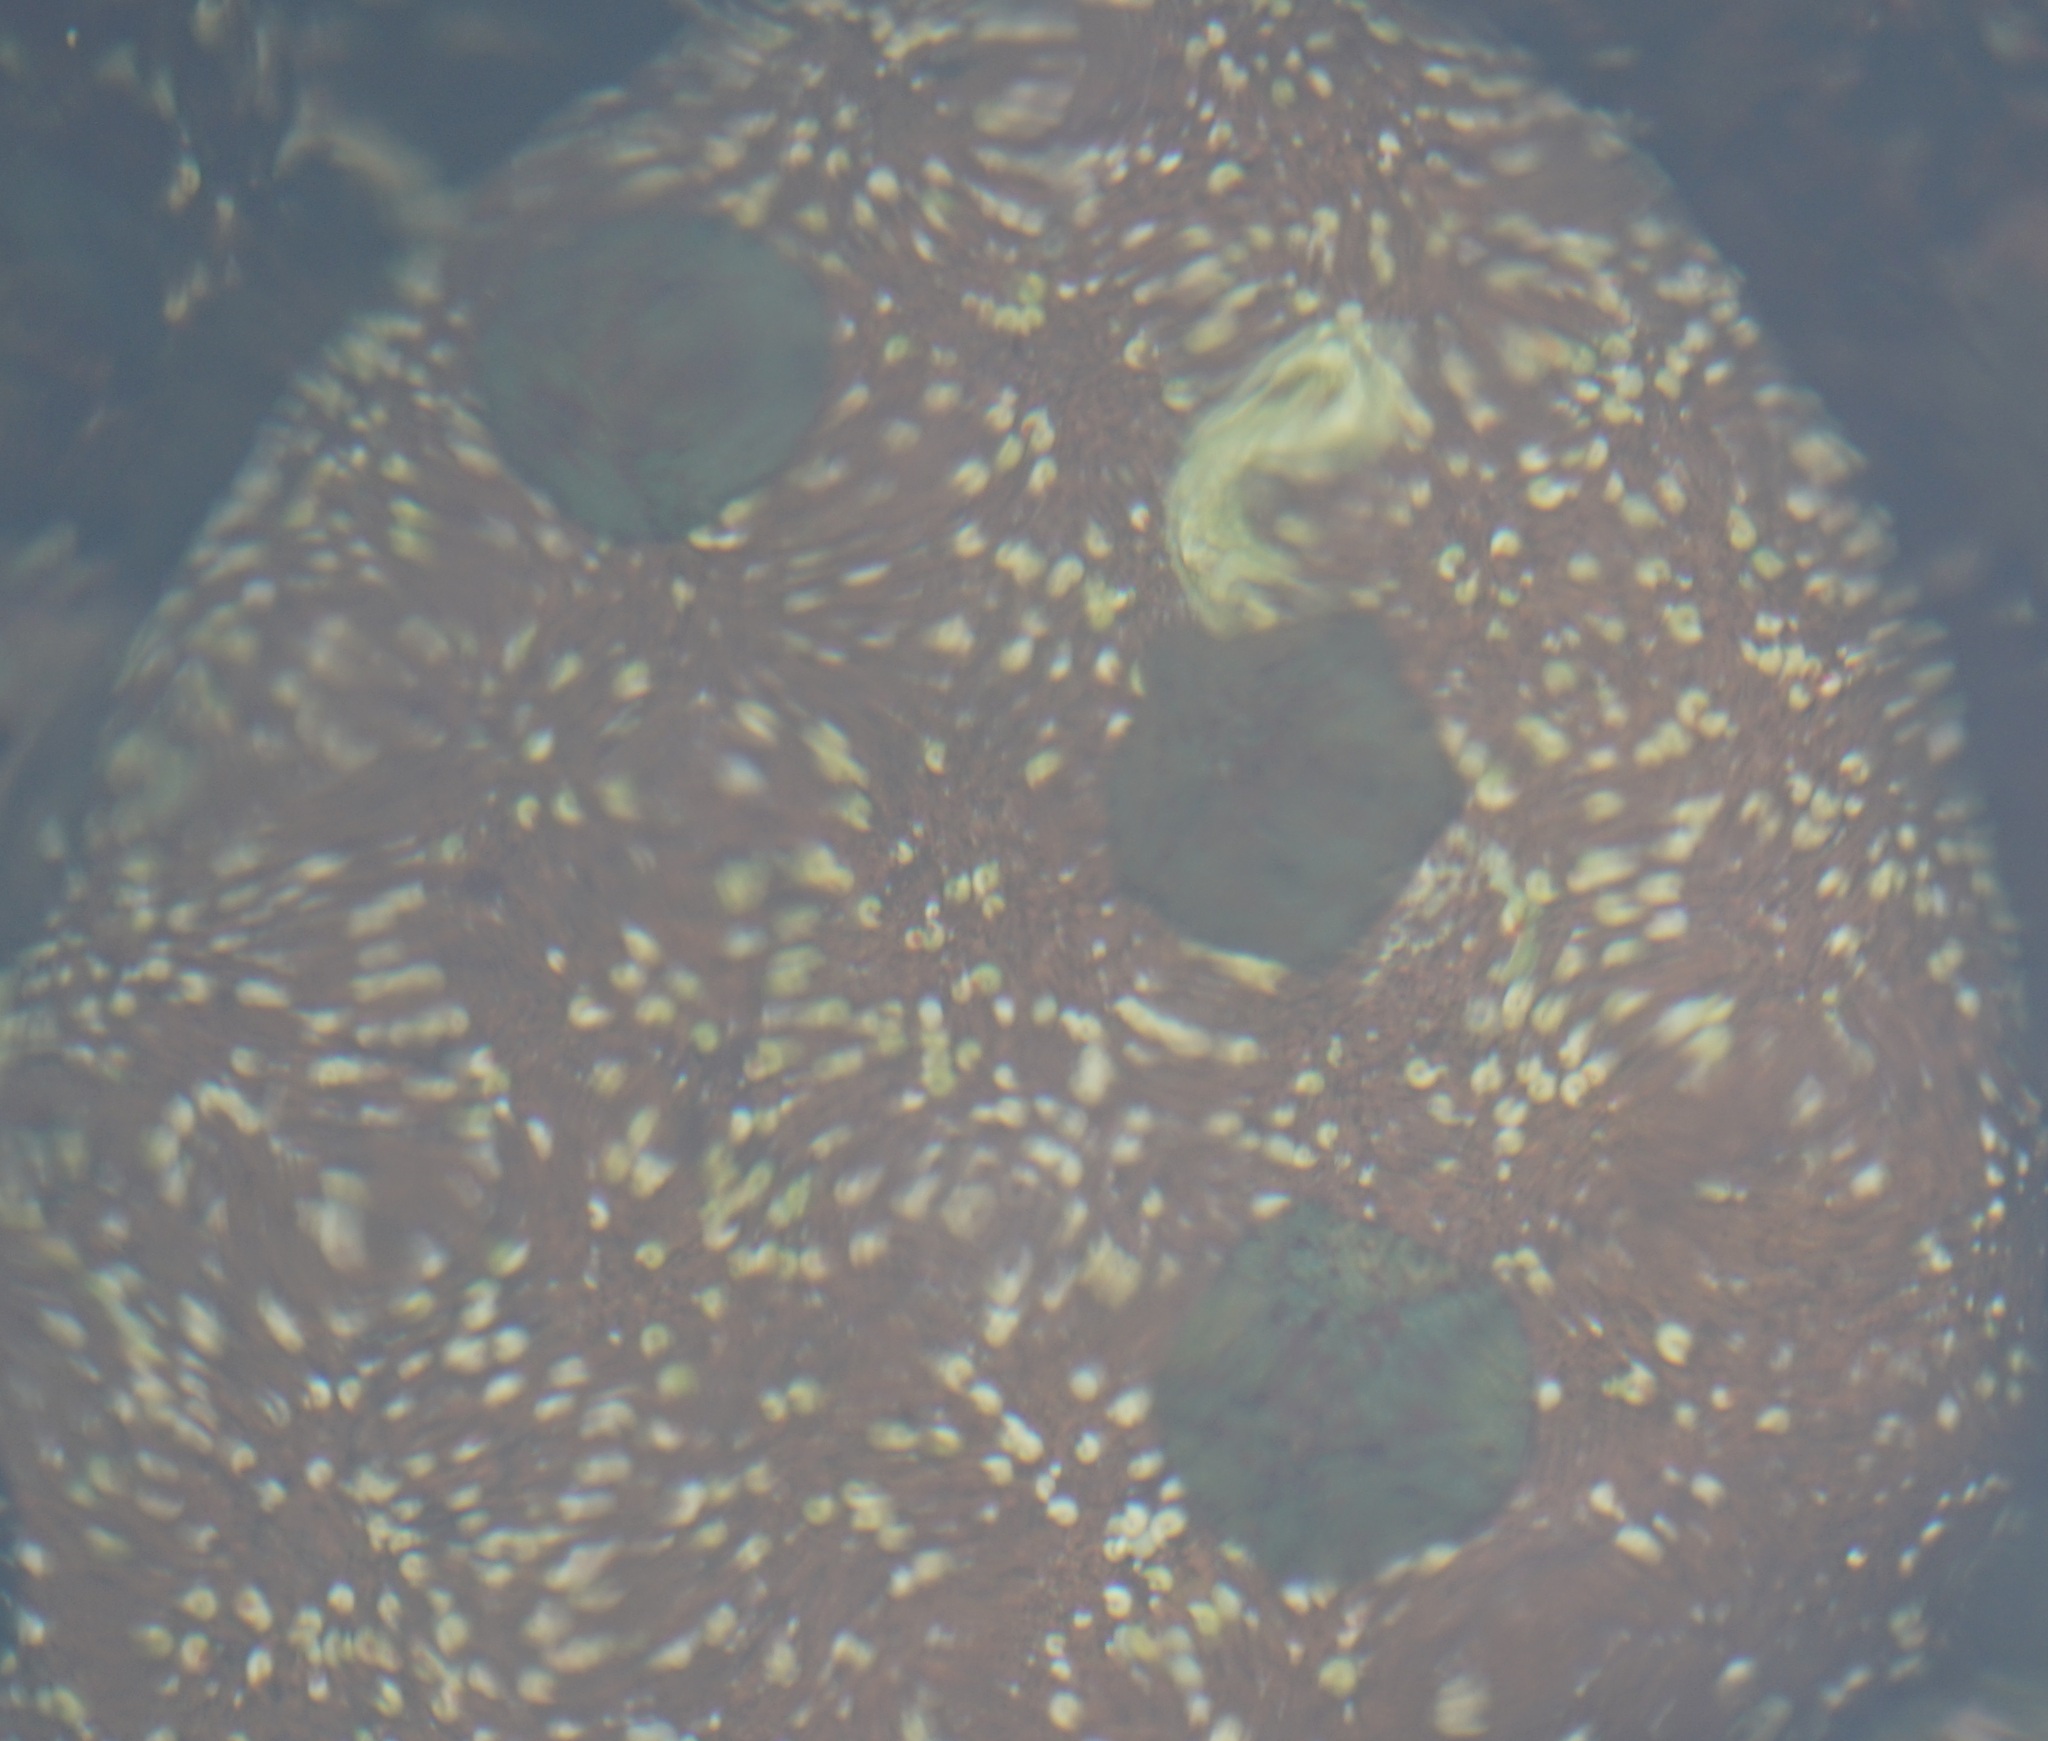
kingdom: Animalia
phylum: Echinodermata
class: Asteroidea
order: Valvatida
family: Asterinidae
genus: Parvulastra
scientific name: Parvulastra exigua
